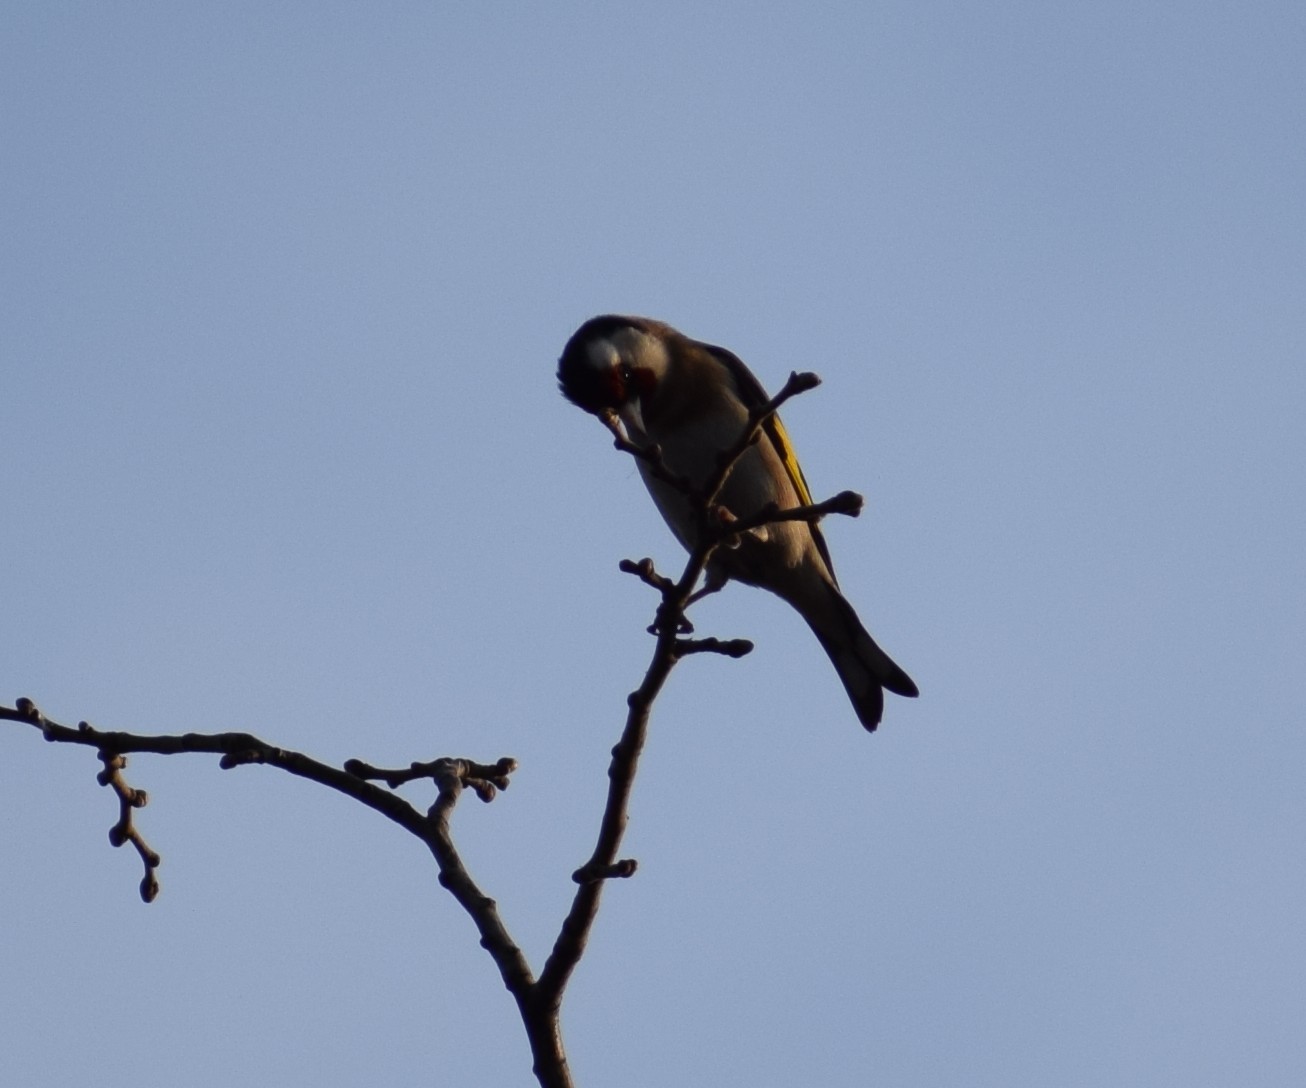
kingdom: Animalia
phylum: Chordata
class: Aves
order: Passeriformes
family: Fringillidae
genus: Carduelis
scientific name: Carduelis carduelis
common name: European goldfinch
